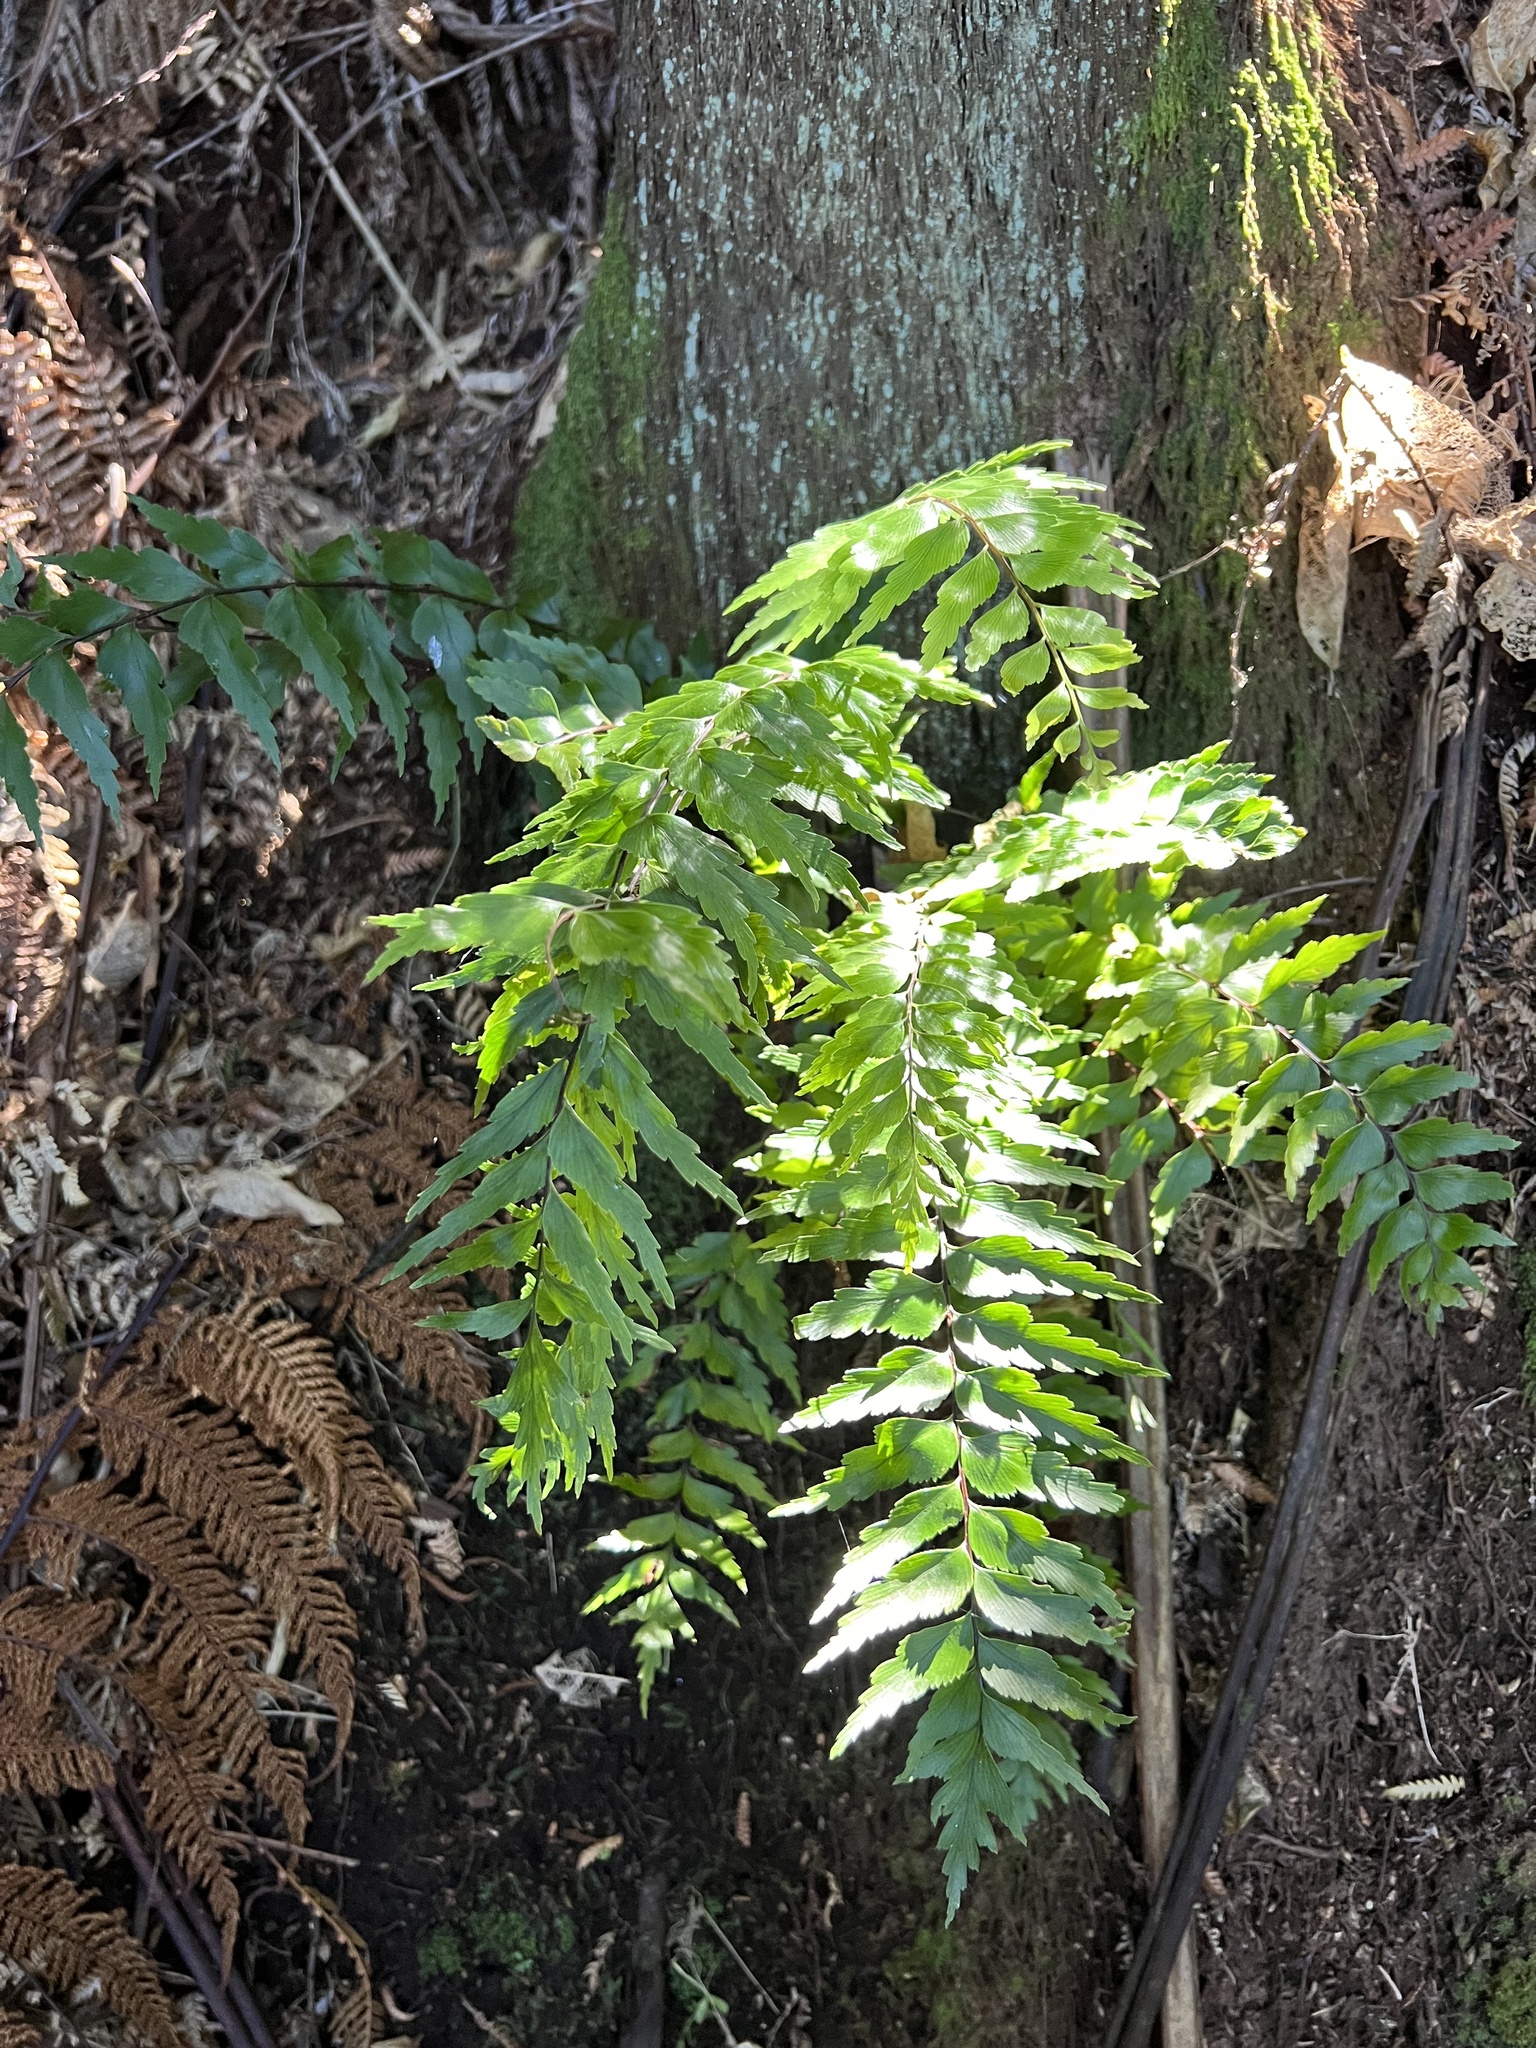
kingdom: Plantae
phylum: Tracheophyta
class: Polypodiopsida
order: Polypodiales
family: Aspleniaceae
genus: Asplenium
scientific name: Asplenium polyodon
